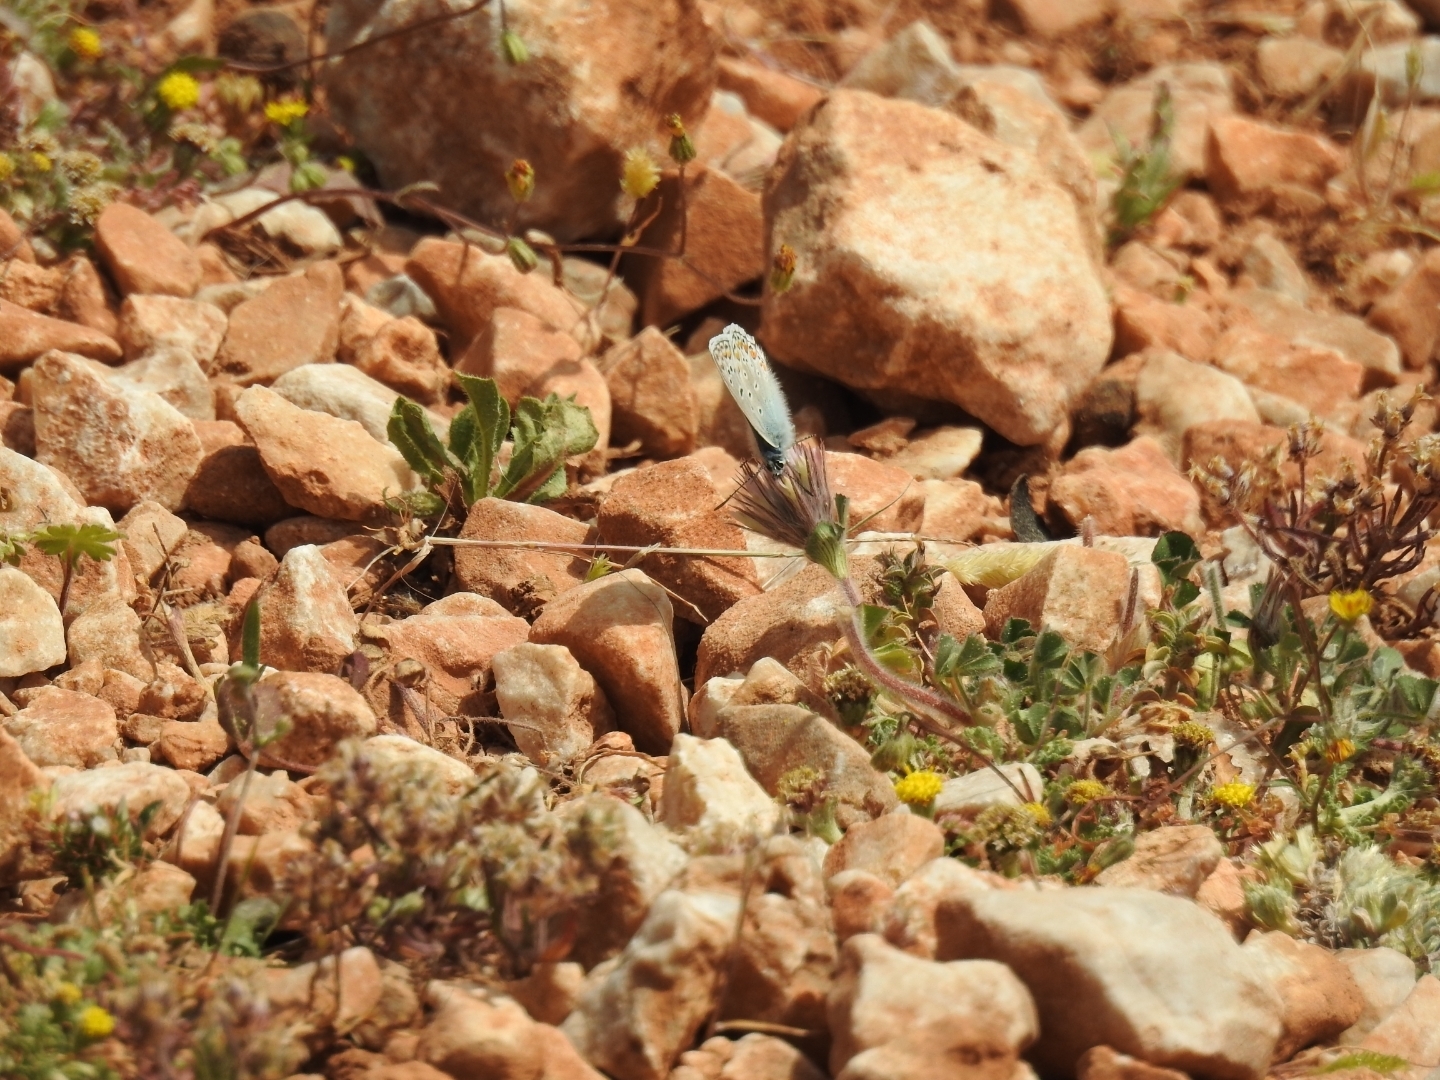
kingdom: Animalia
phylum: Arthropoda
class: Insecta
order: Lepidoptera
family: Lycaenidae
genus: Polyommatus
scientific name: Polyommatus icarus
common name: Common blue
